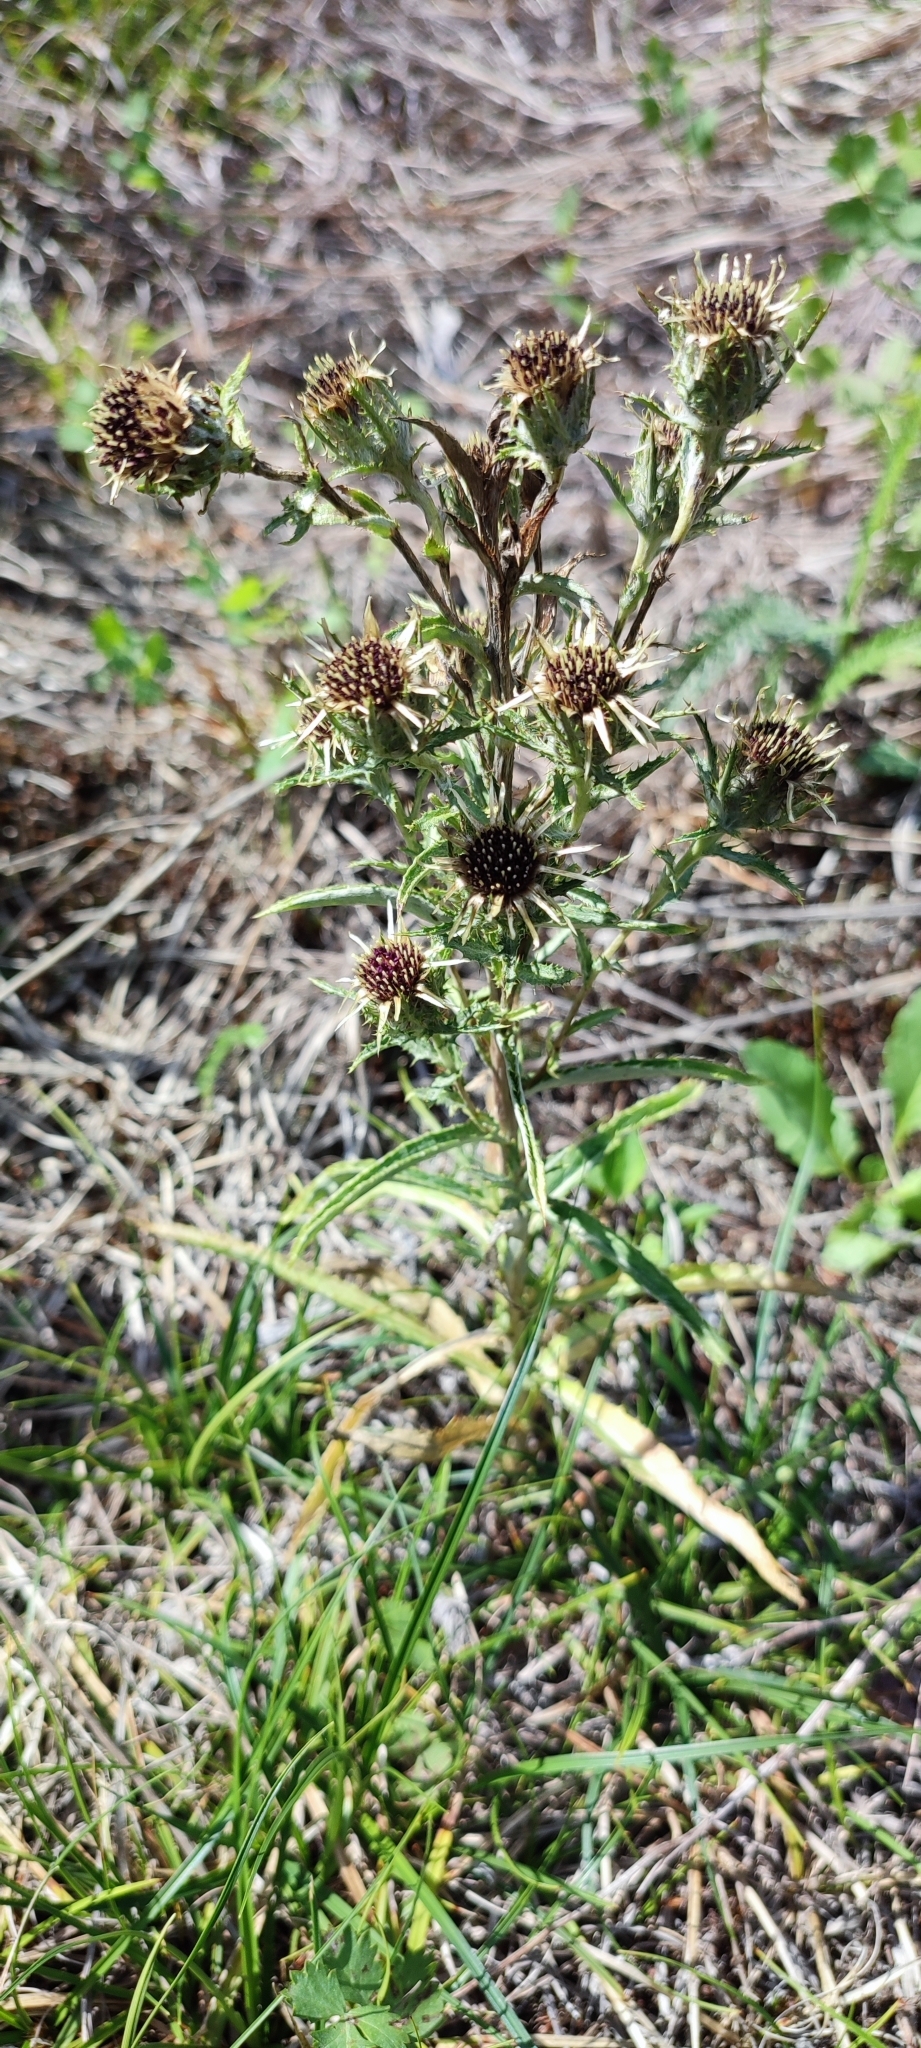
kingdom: Plantae
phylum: Tracheophyta
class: Magnoliopsida
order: Asterales
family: Asteraceae
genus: Carlina
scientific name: Carlina biebersteinii
